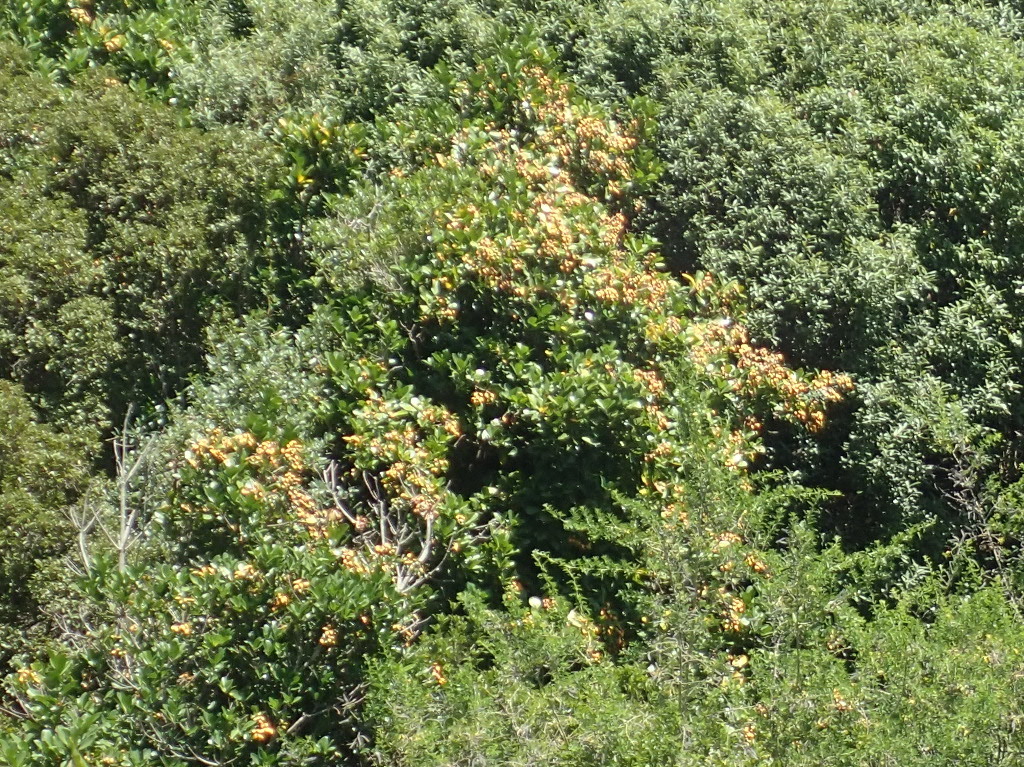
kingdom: Plantae
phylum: Tracheophyta
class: Magnoliopsida
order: Cucurbitales
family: Corynocarpaceae
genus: Corynocarpus
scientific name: Corynocarpus laevigatus
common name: New zealand laurel
